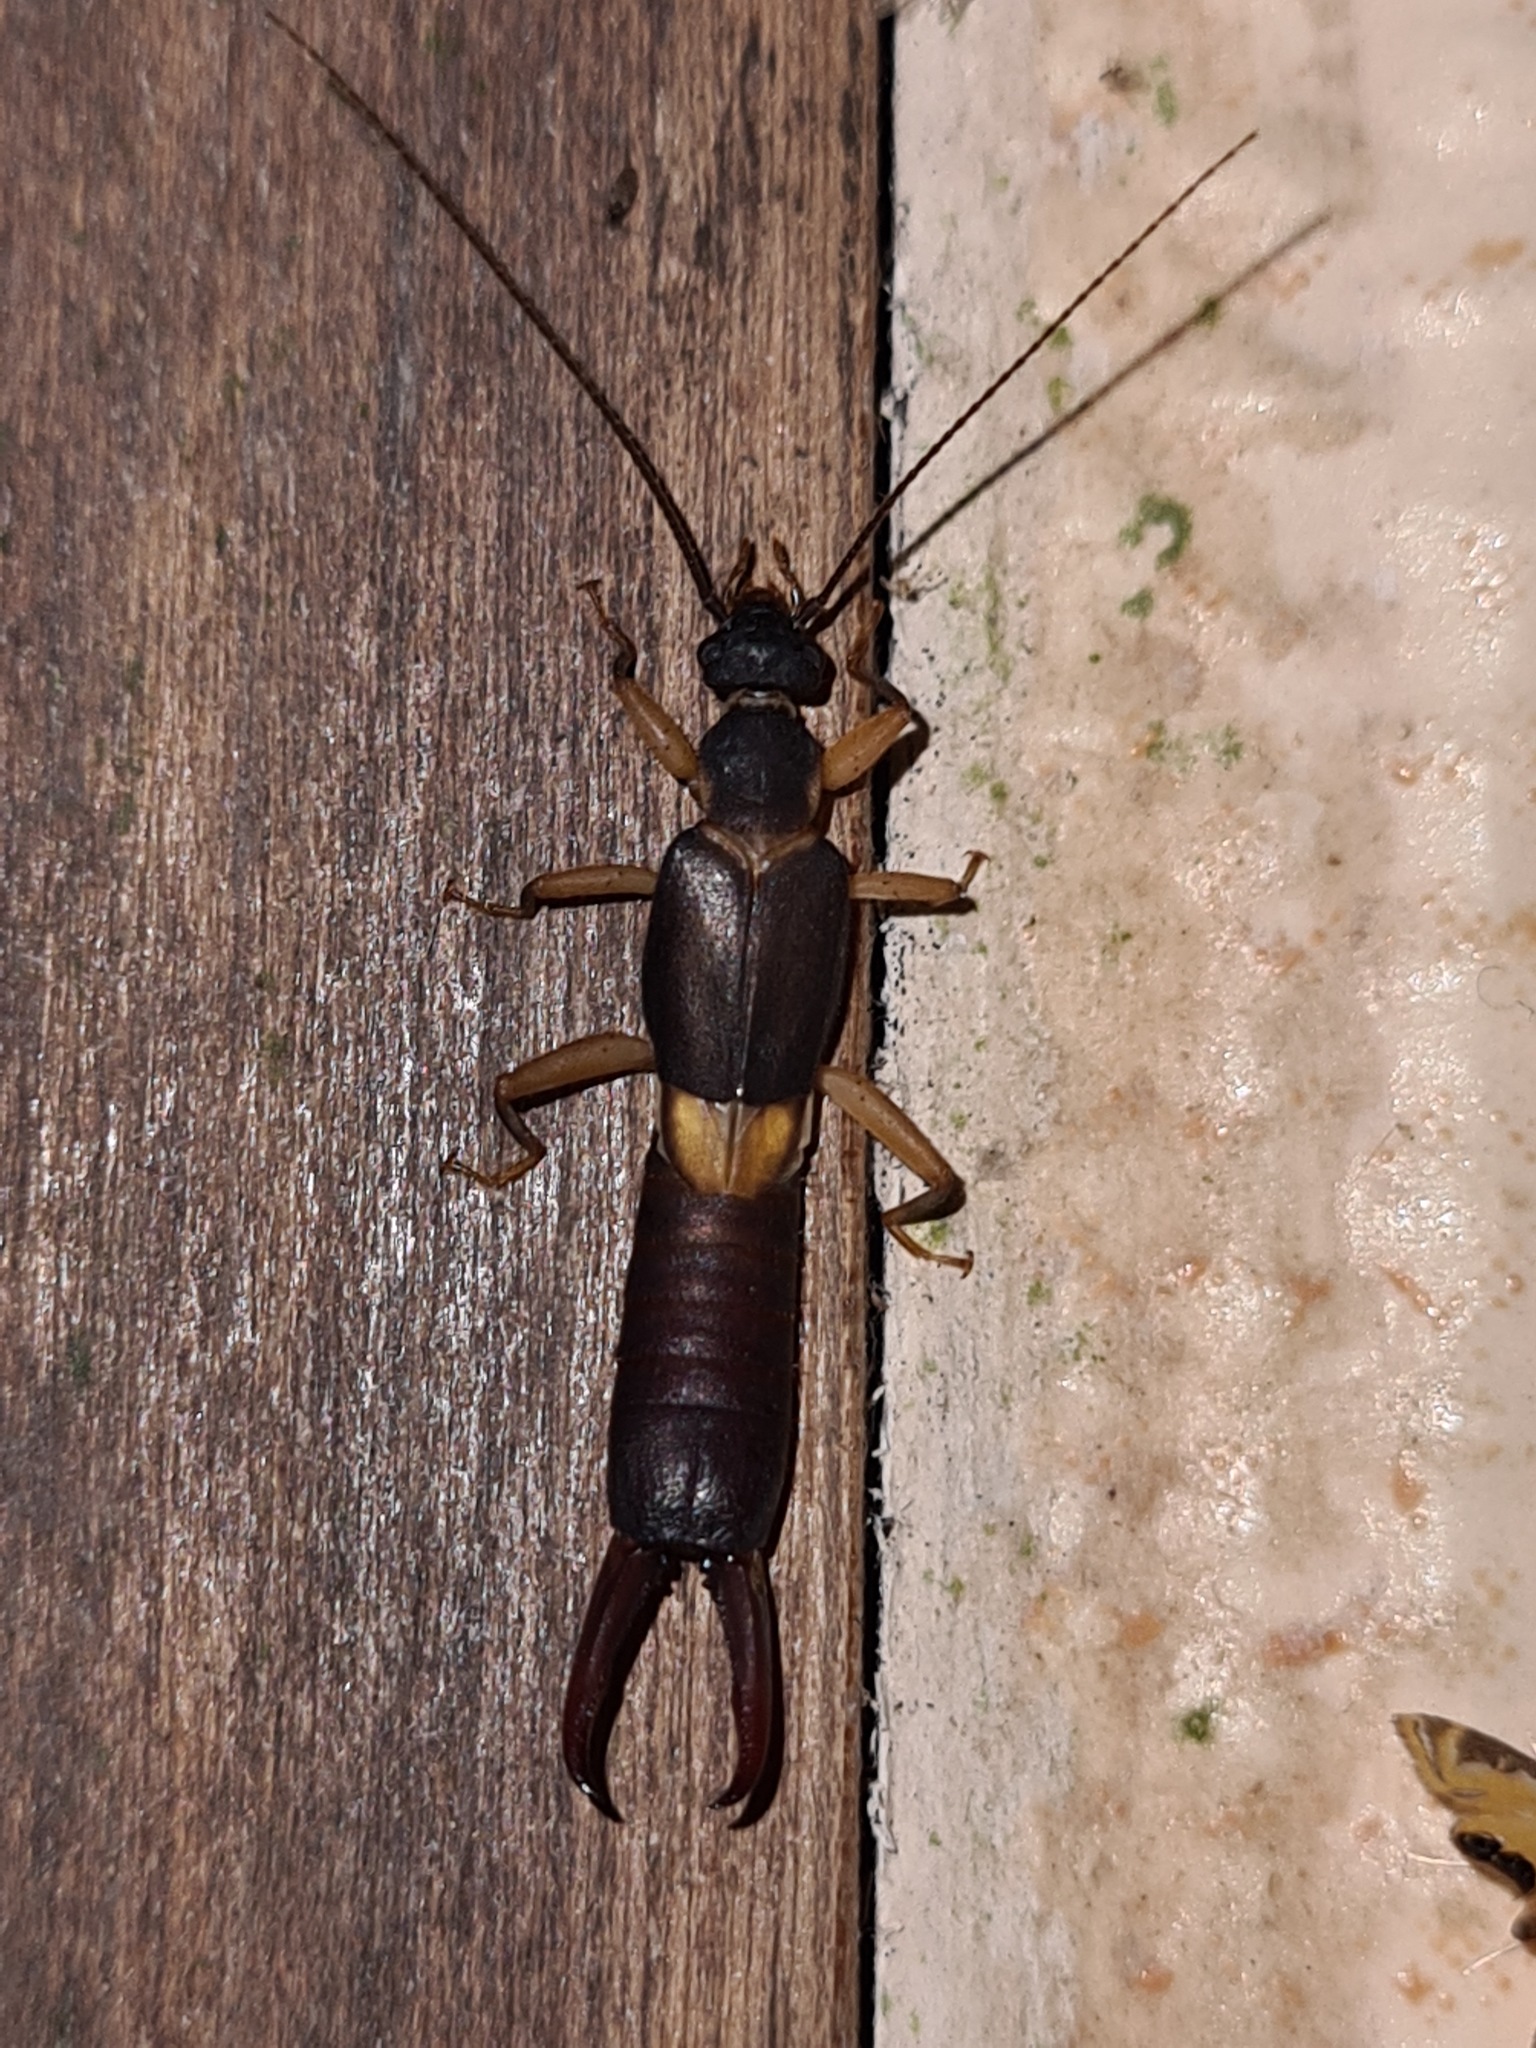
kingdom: Animalia
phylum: Arthropoda
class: Insecta
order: Dermaptera
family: Pygidicranidae
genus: Pyragra
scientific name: Pyragra fuscata
